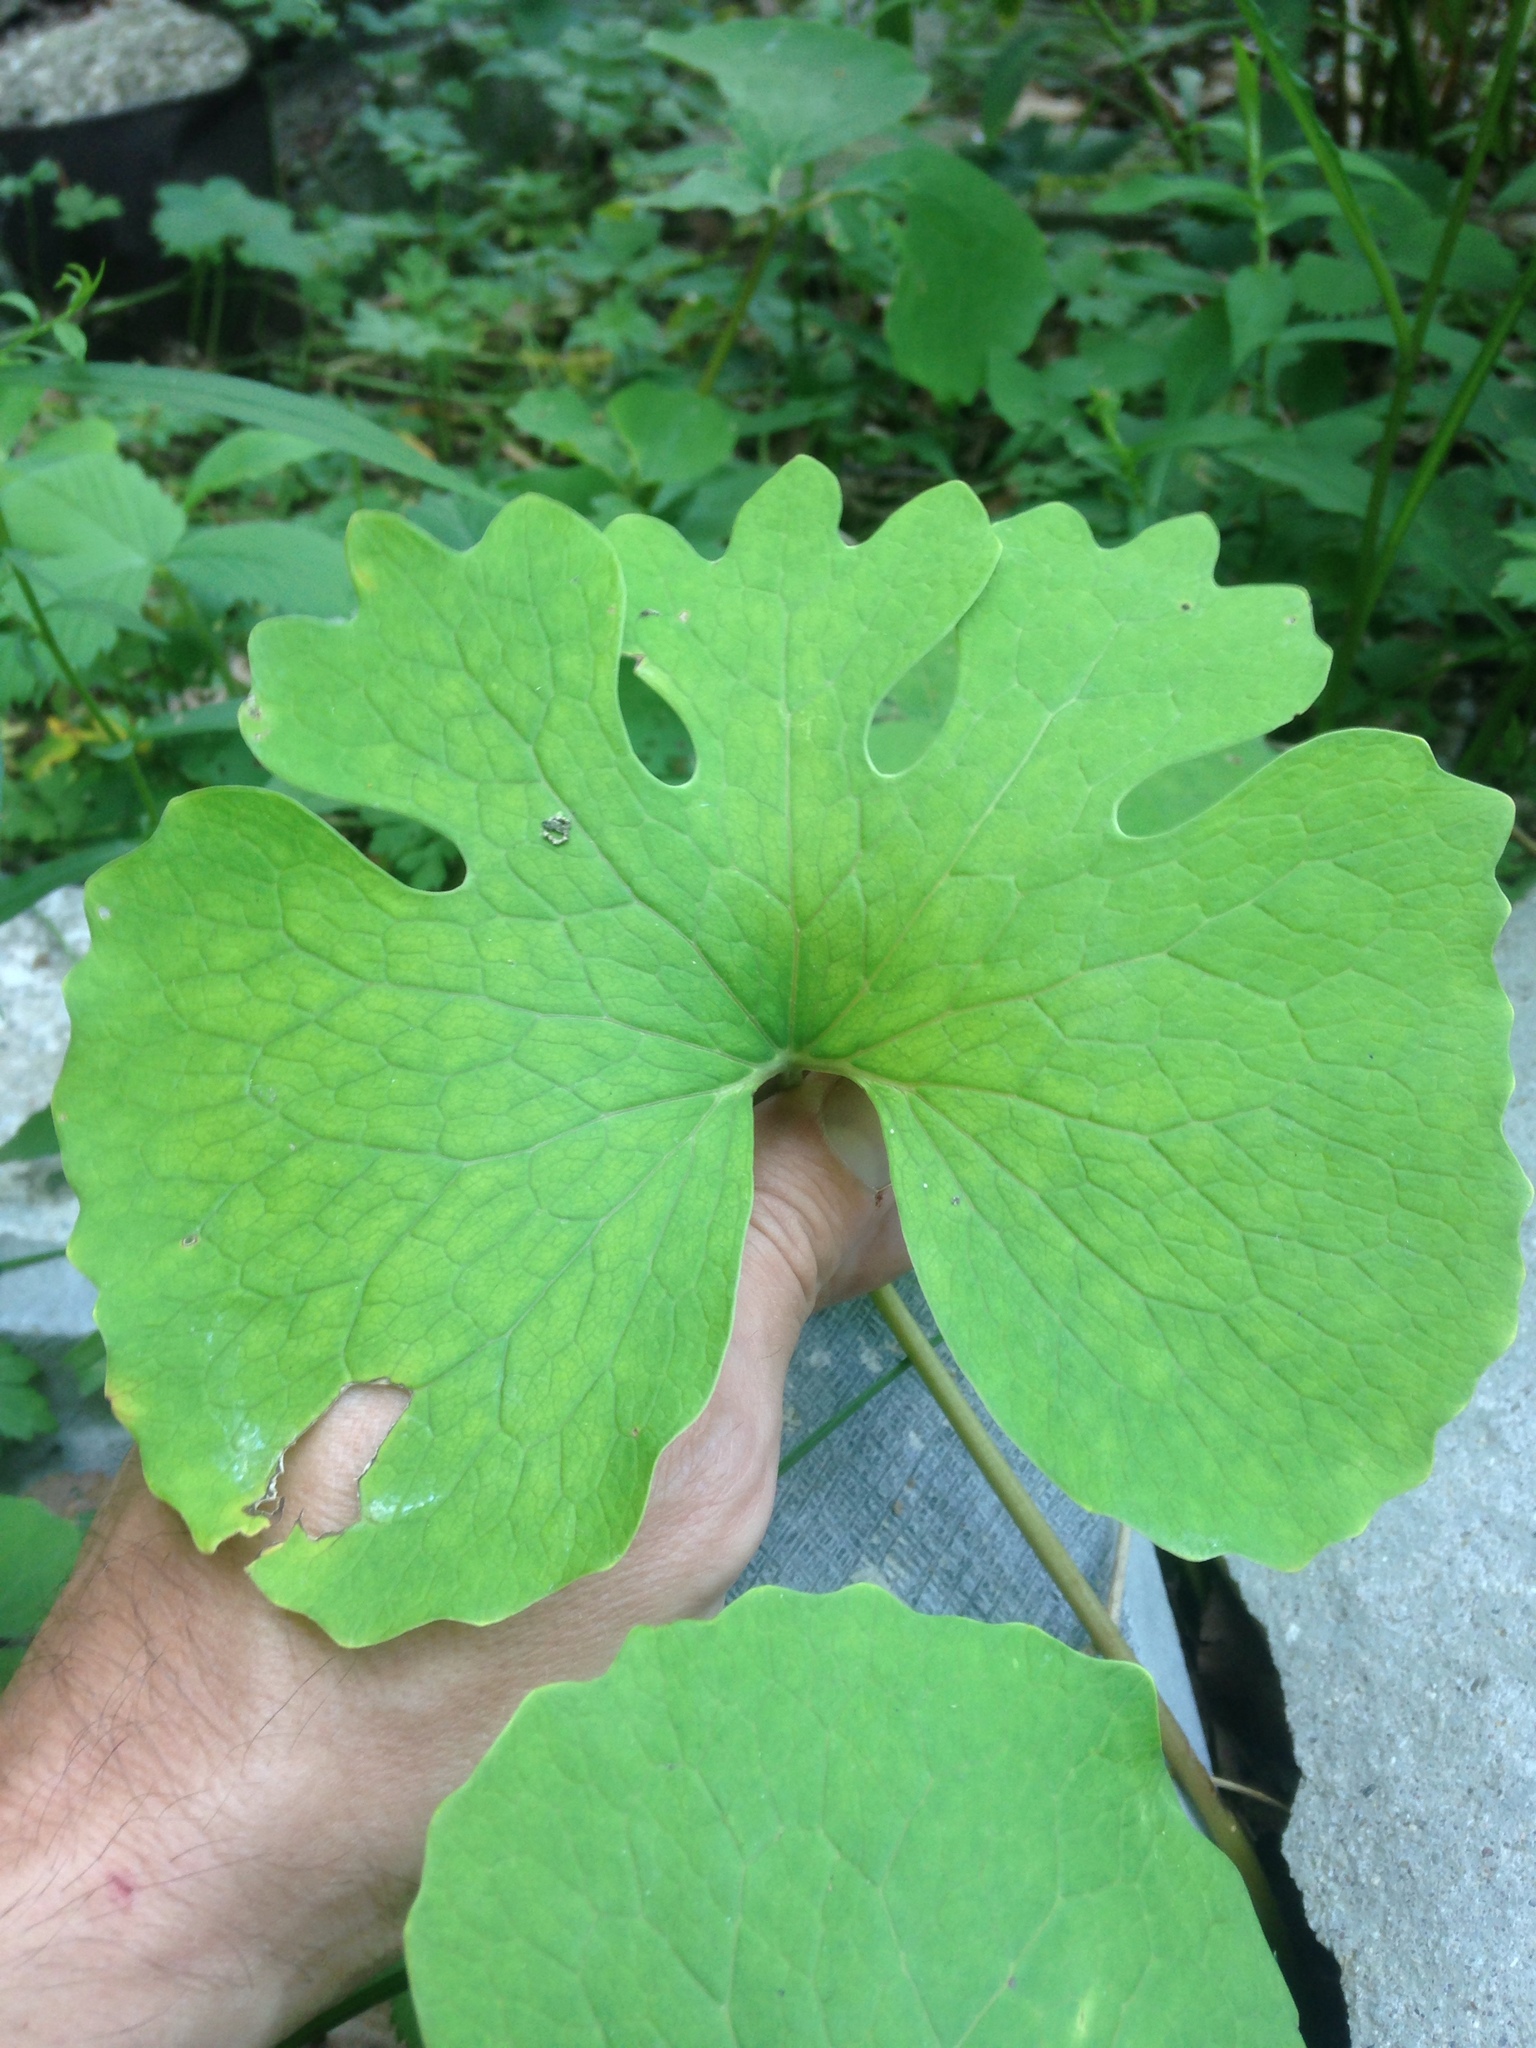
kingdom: Plantae
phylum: Tracheophyta
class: Magnoliopsida
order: Ranunculales
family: Papaveraceae
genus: Sanguinaria
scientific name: Sanguinaria canadensis
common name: Bloodroot
